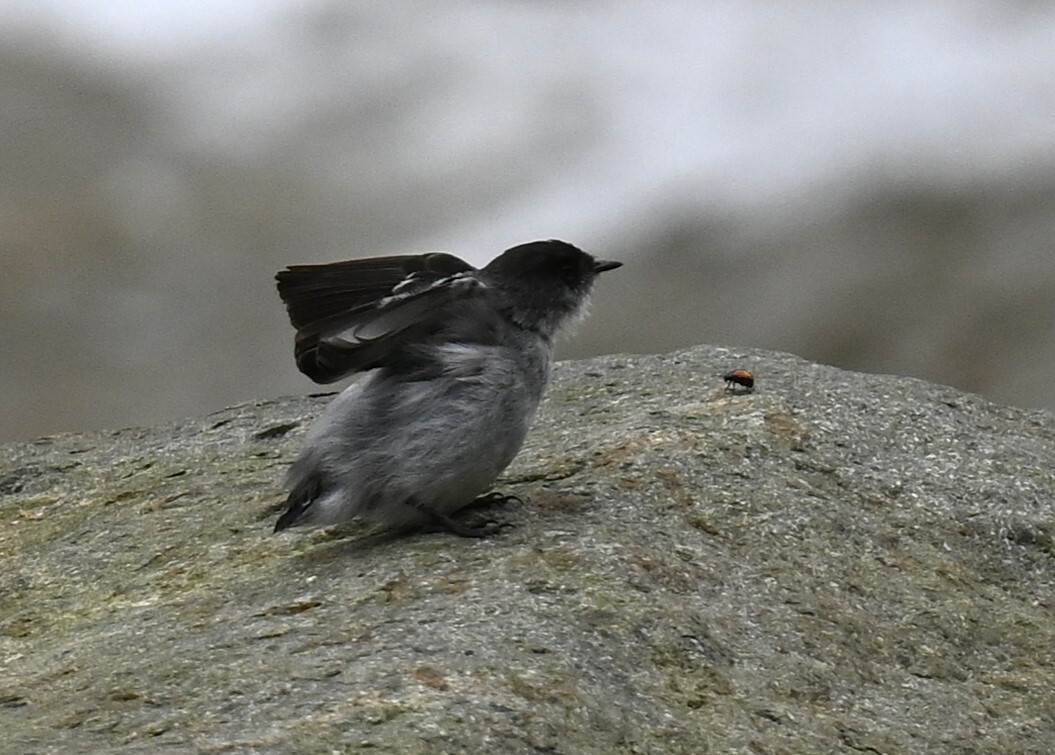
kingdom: Animalia
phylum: Chordata
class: Aves
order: Passeriformes
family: Tyrannidae
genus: Serpophaga
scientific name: Serpophaga cinerea
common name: Torrent tyrannulet
